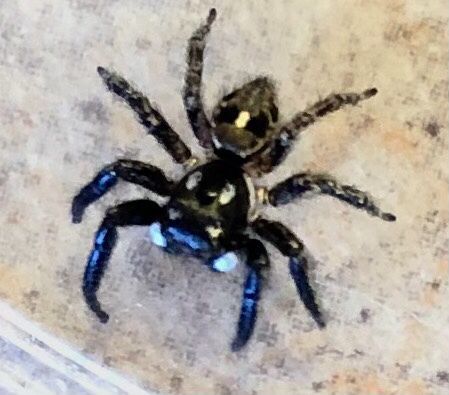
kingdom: Animalia
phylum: Arthropoda
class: Arachnida
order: Araneae
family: Salticidae
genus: Anasaitis
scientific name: Anasaitis canosa
